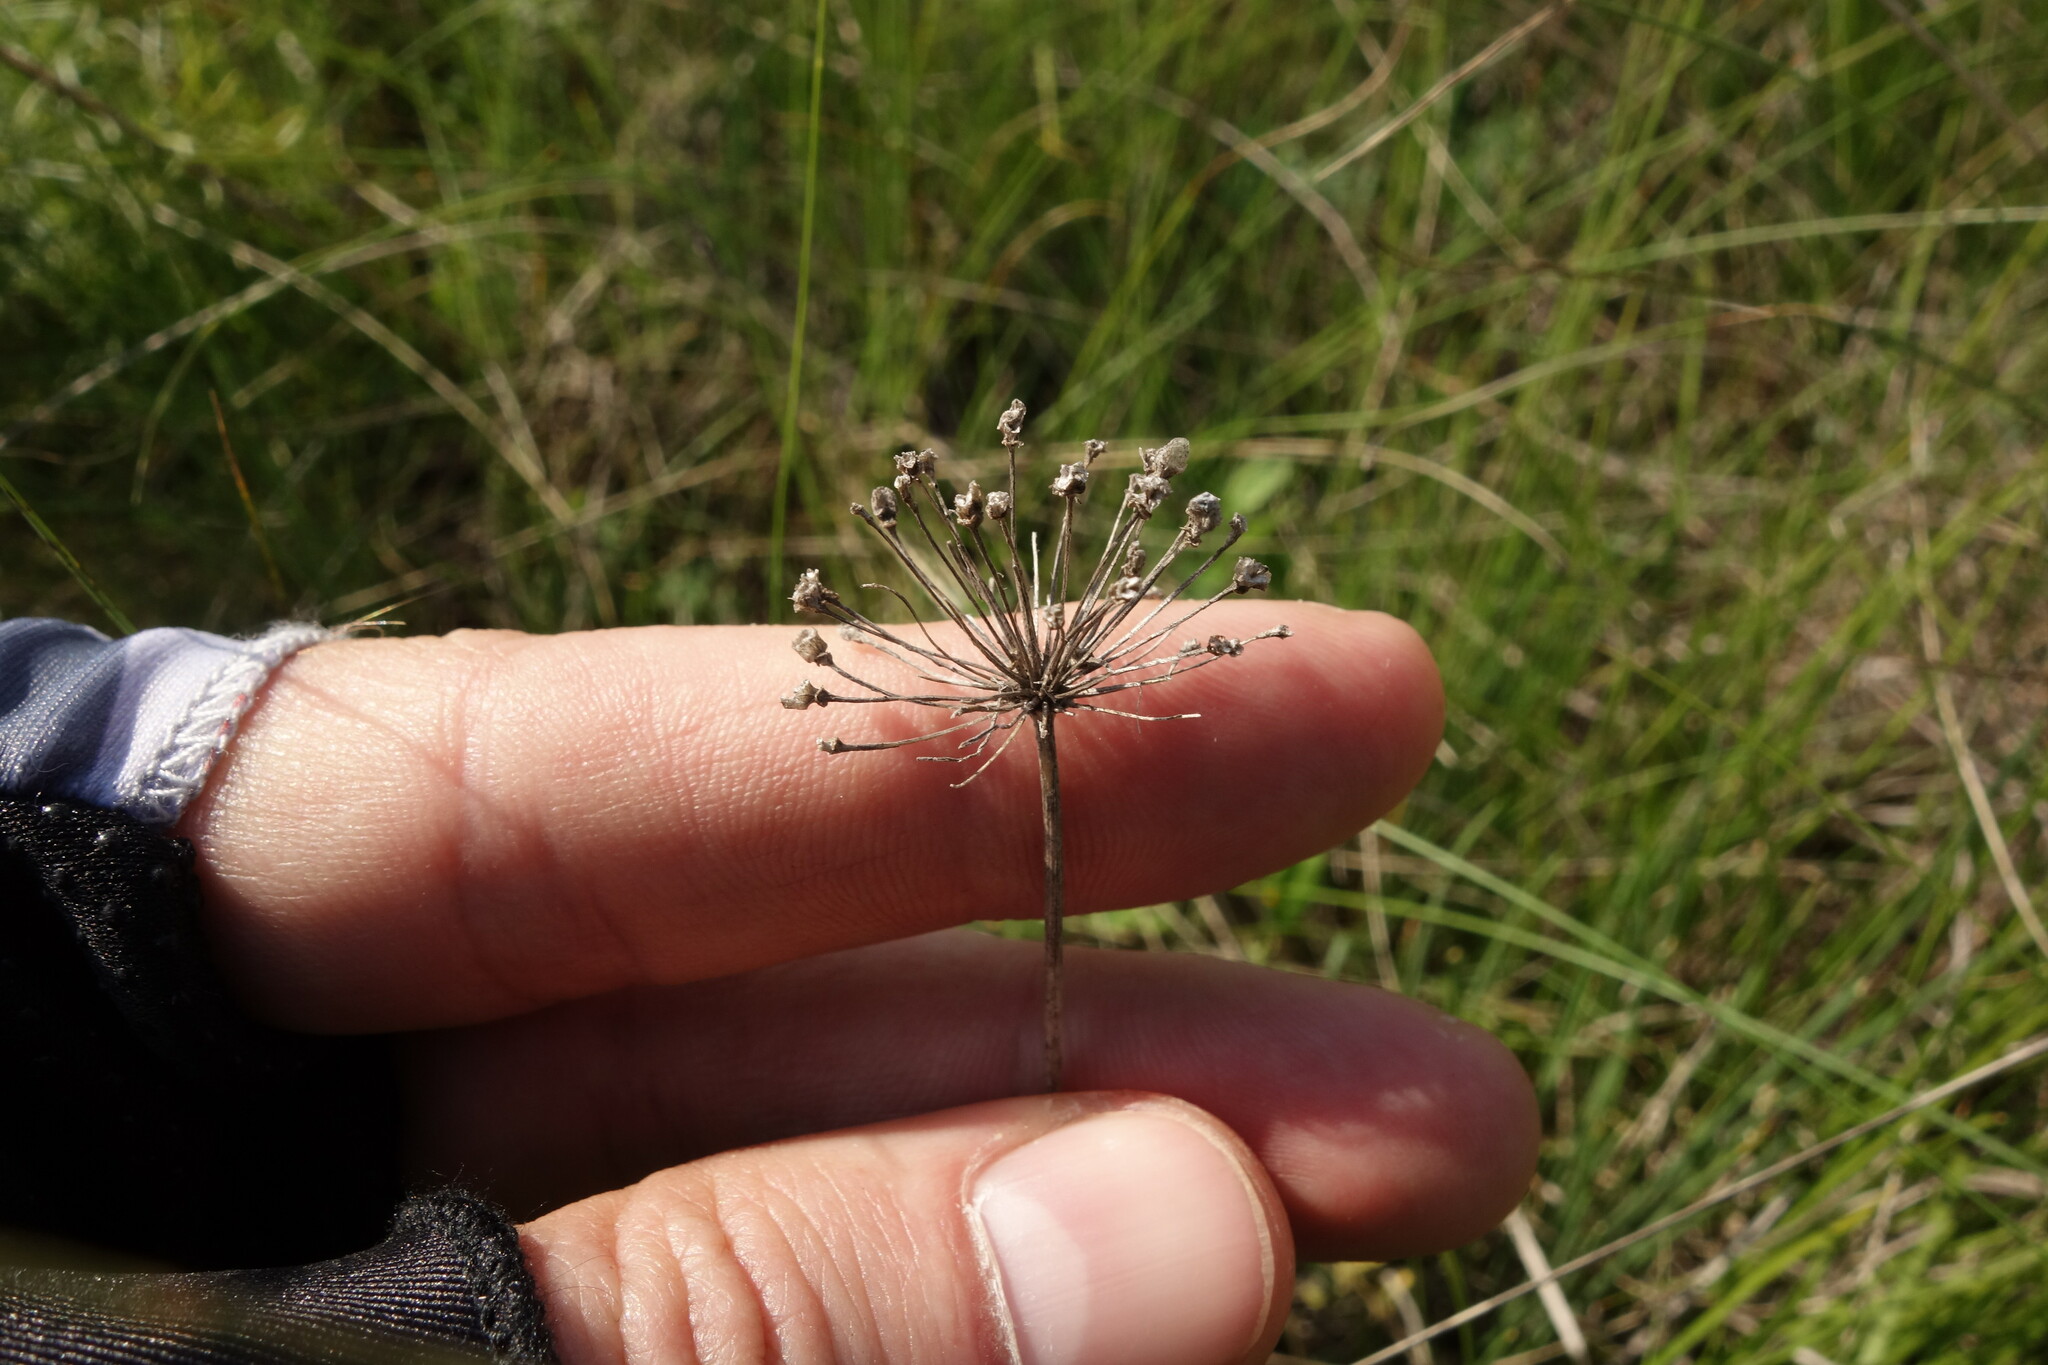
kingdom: Plantae
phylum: Tracheophyta
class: Liliopsida
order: Asparagales
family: Amaryllidaceae
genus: Allium
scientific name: Allium flavescens
